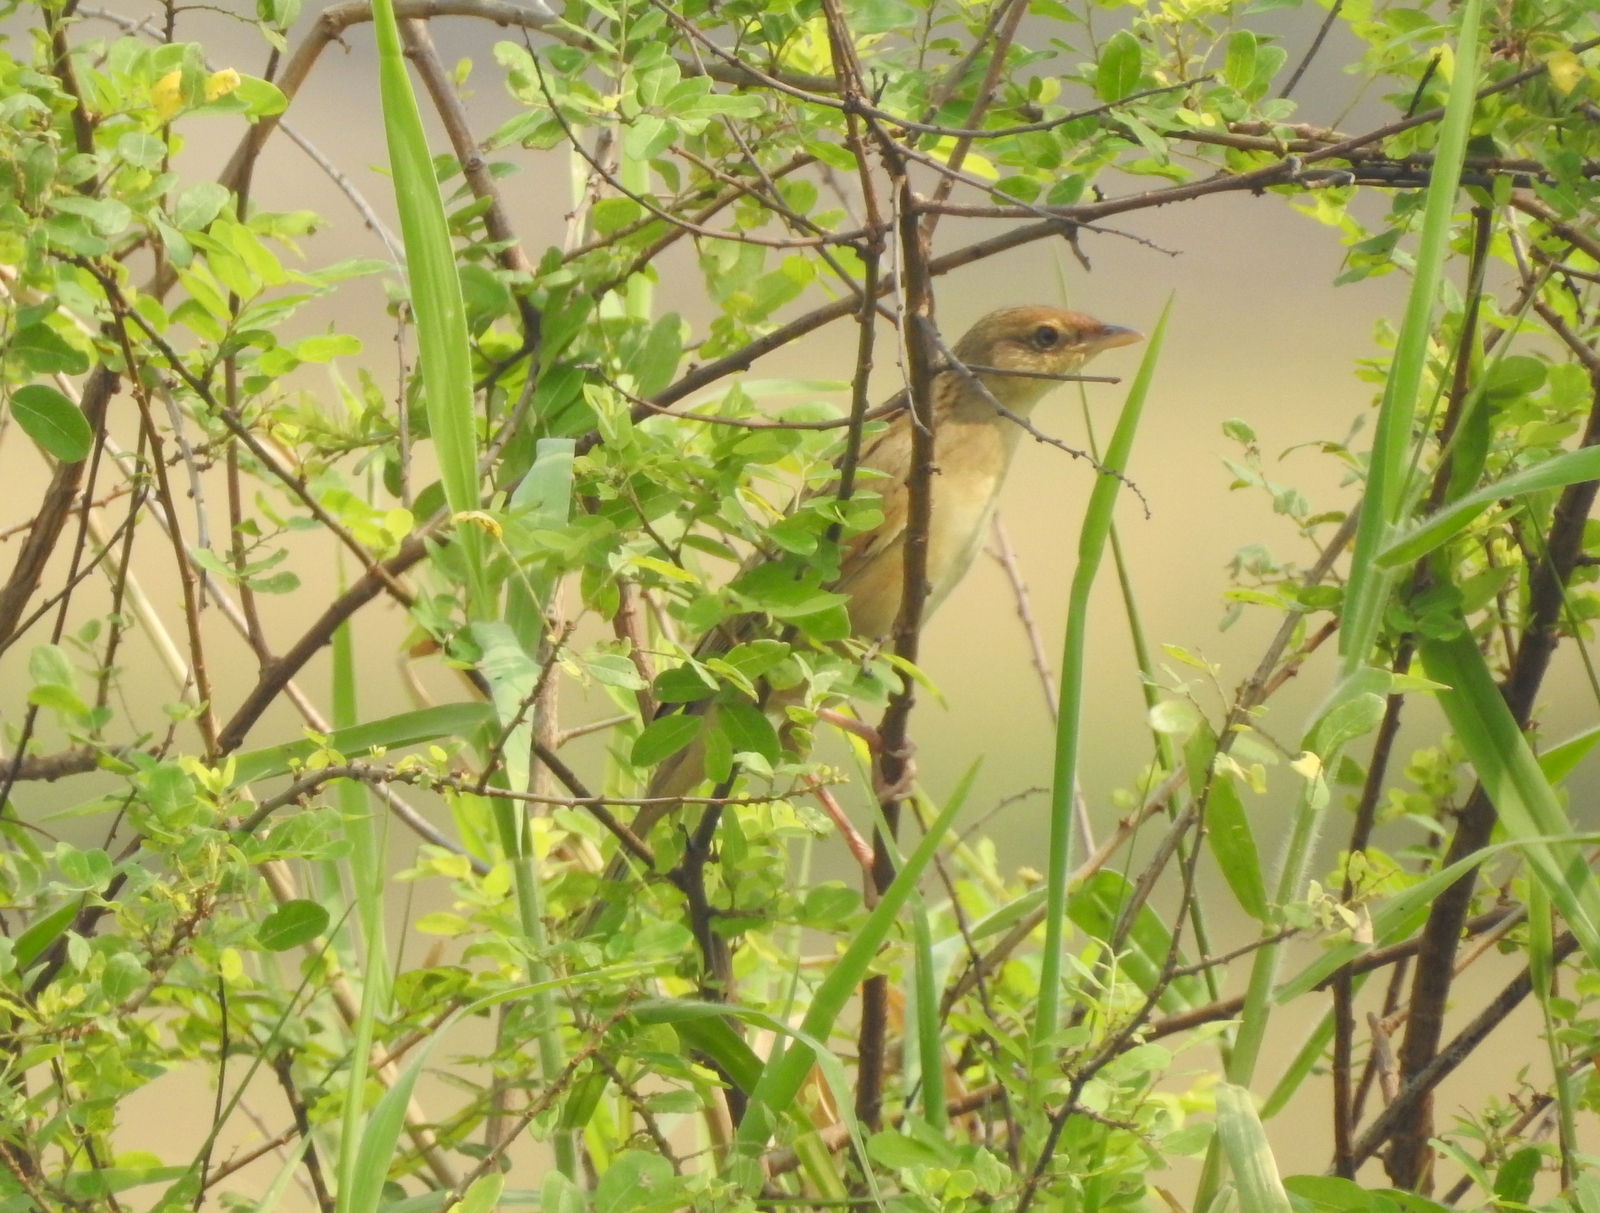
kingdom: Animalia
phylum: Chordata
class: Aves
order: Passeriformes
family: Locustellidae
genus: Chaetornis
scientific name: Chaetornis striata
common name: Bristled grassbird
